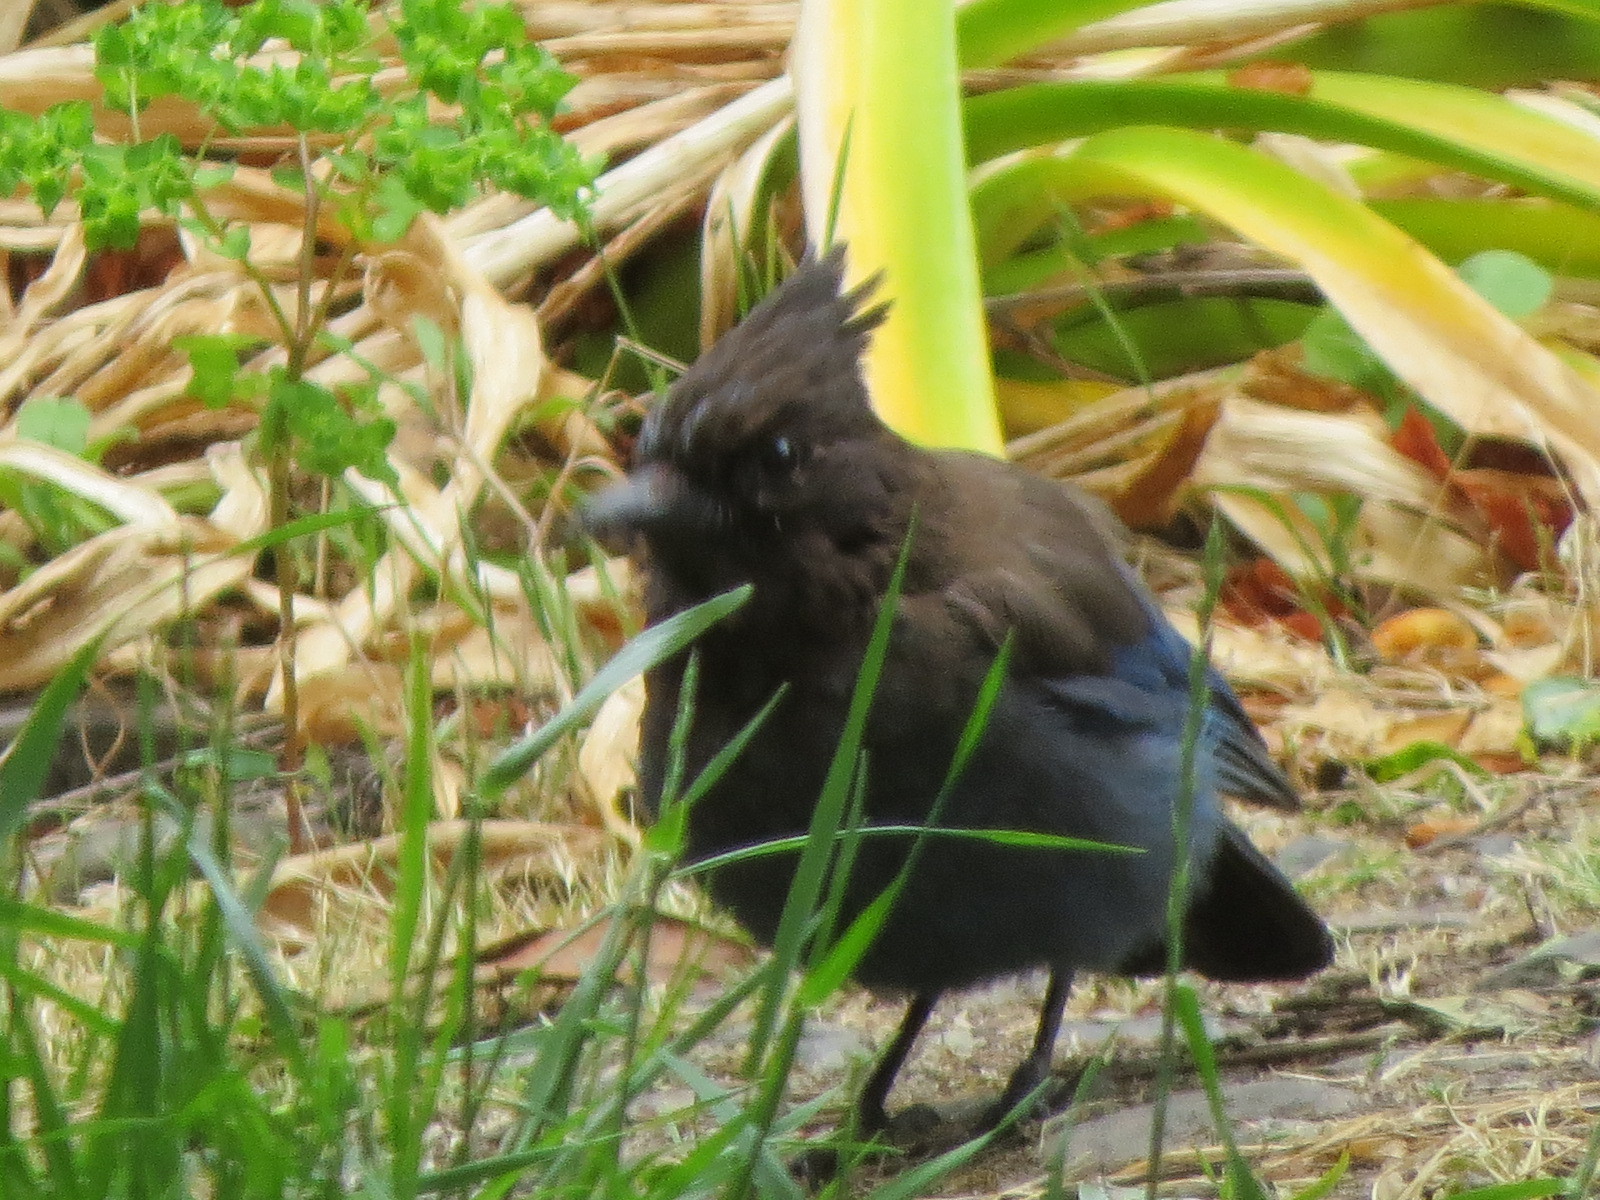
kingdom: Animalia
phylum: Chordata
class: Aves
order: Passeriformes
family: Corvidae
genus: Cyanocitta
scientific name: Cyanocitta stelleri
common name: Steller's jay
